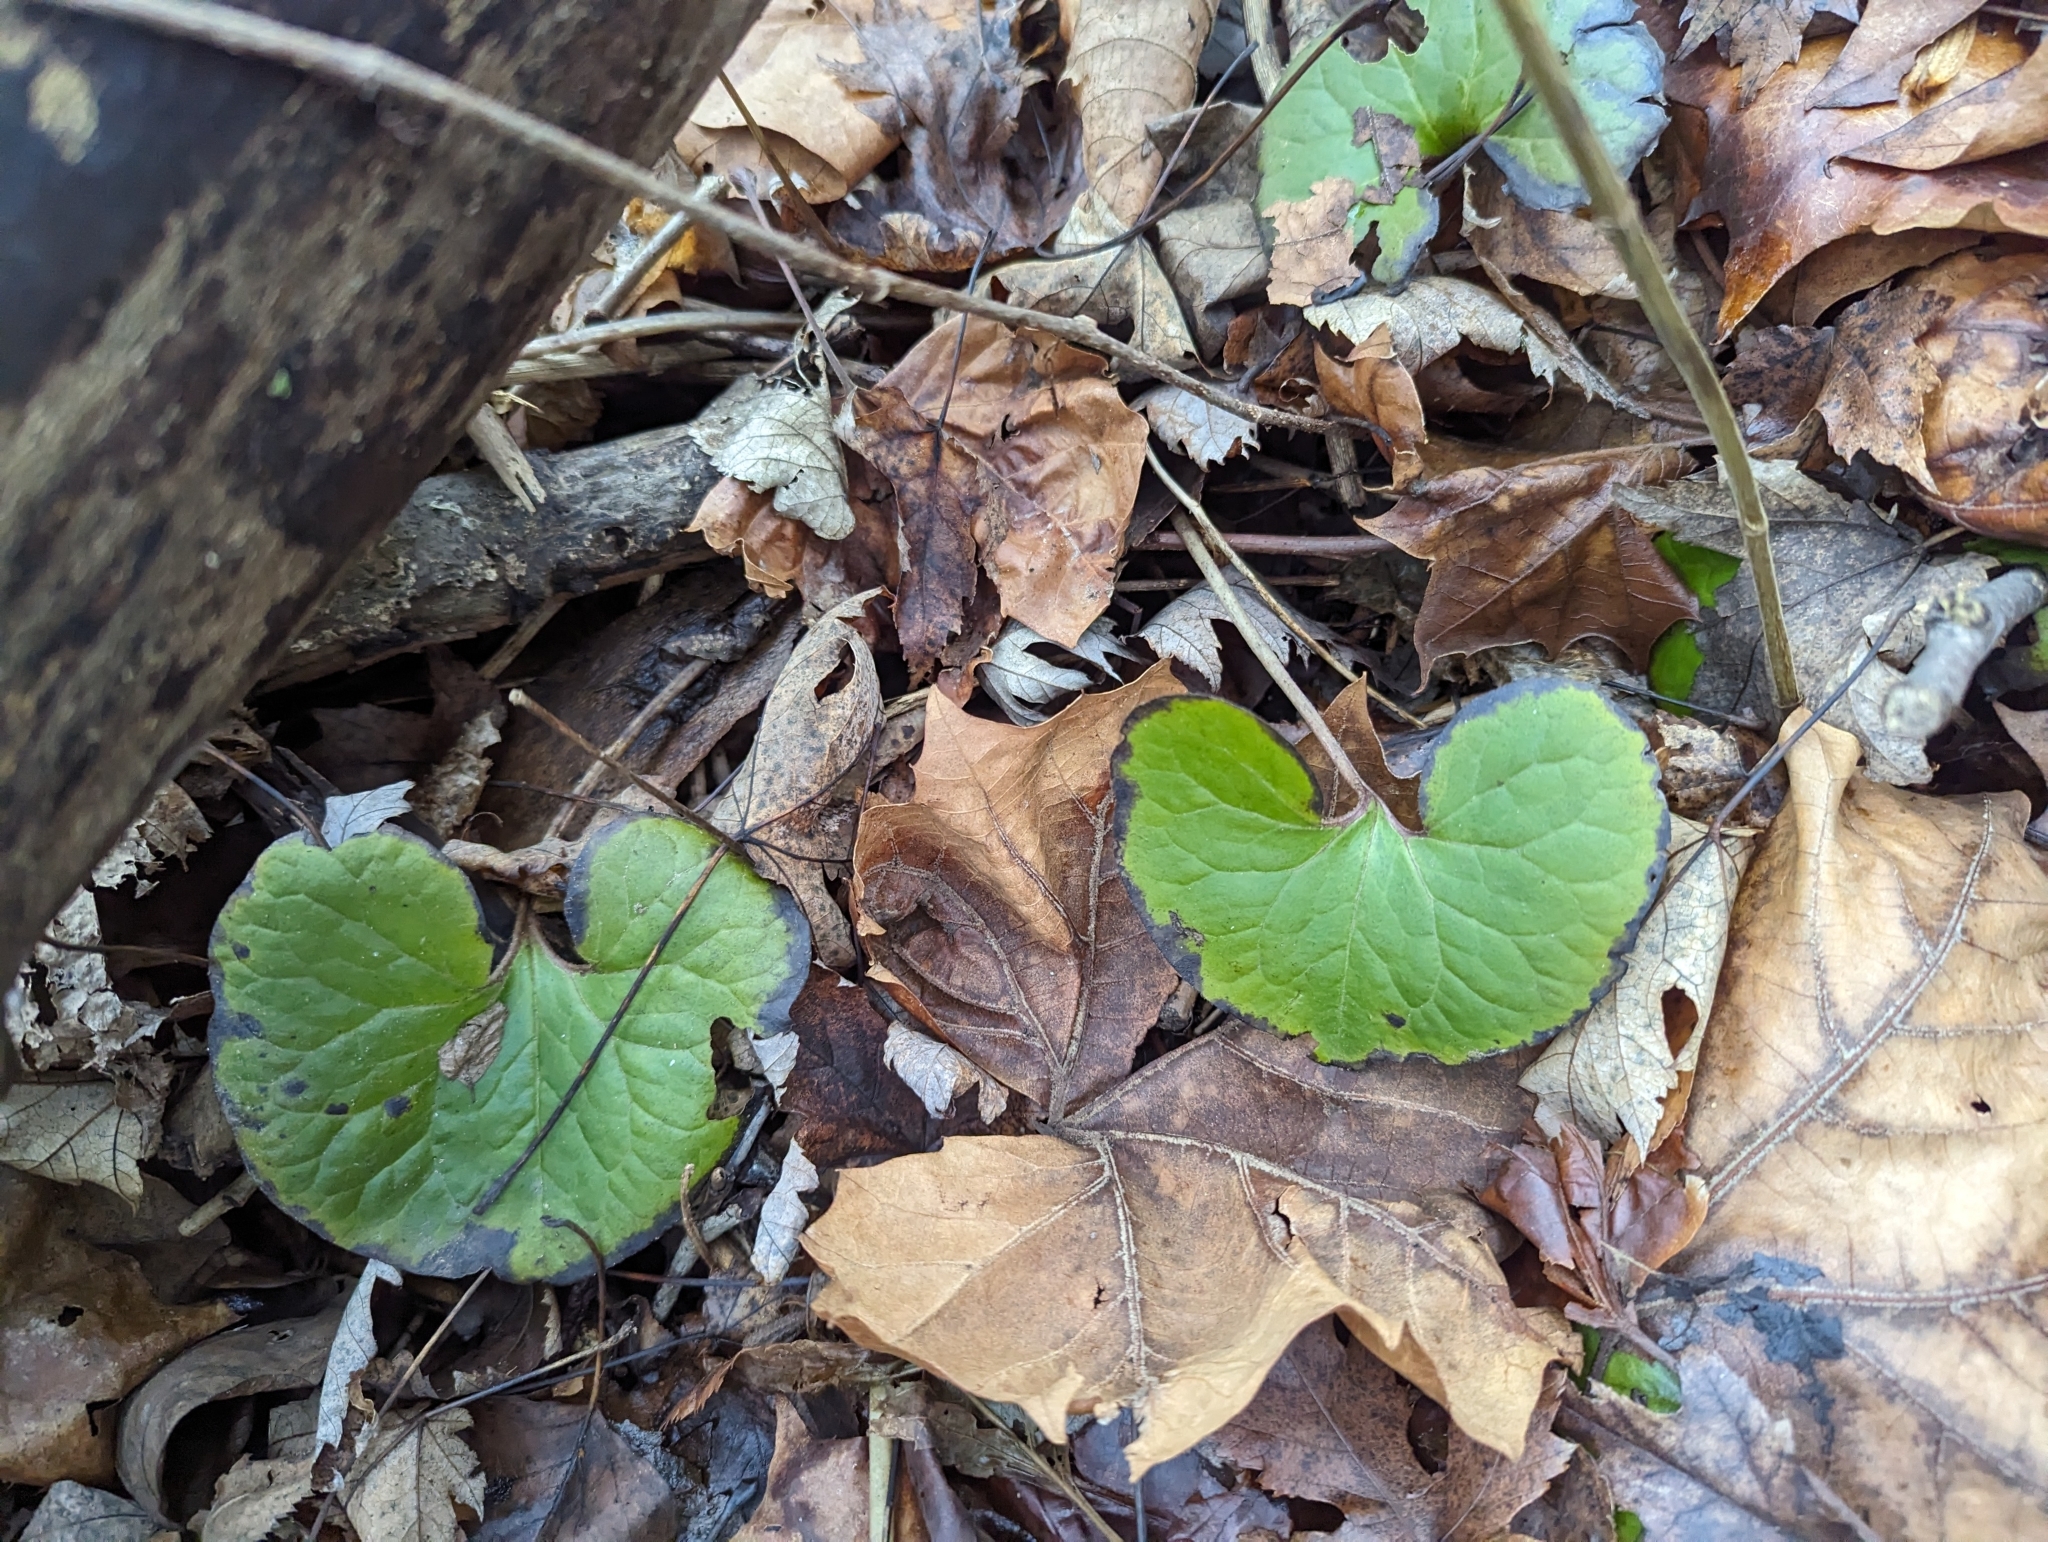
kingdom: Plantae
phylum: Tracheophyta
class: Magnoliopsida
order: Piperales
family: Aristolochiaceae
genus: Asarum
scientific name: Asarum canadense
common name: Wild ginger
